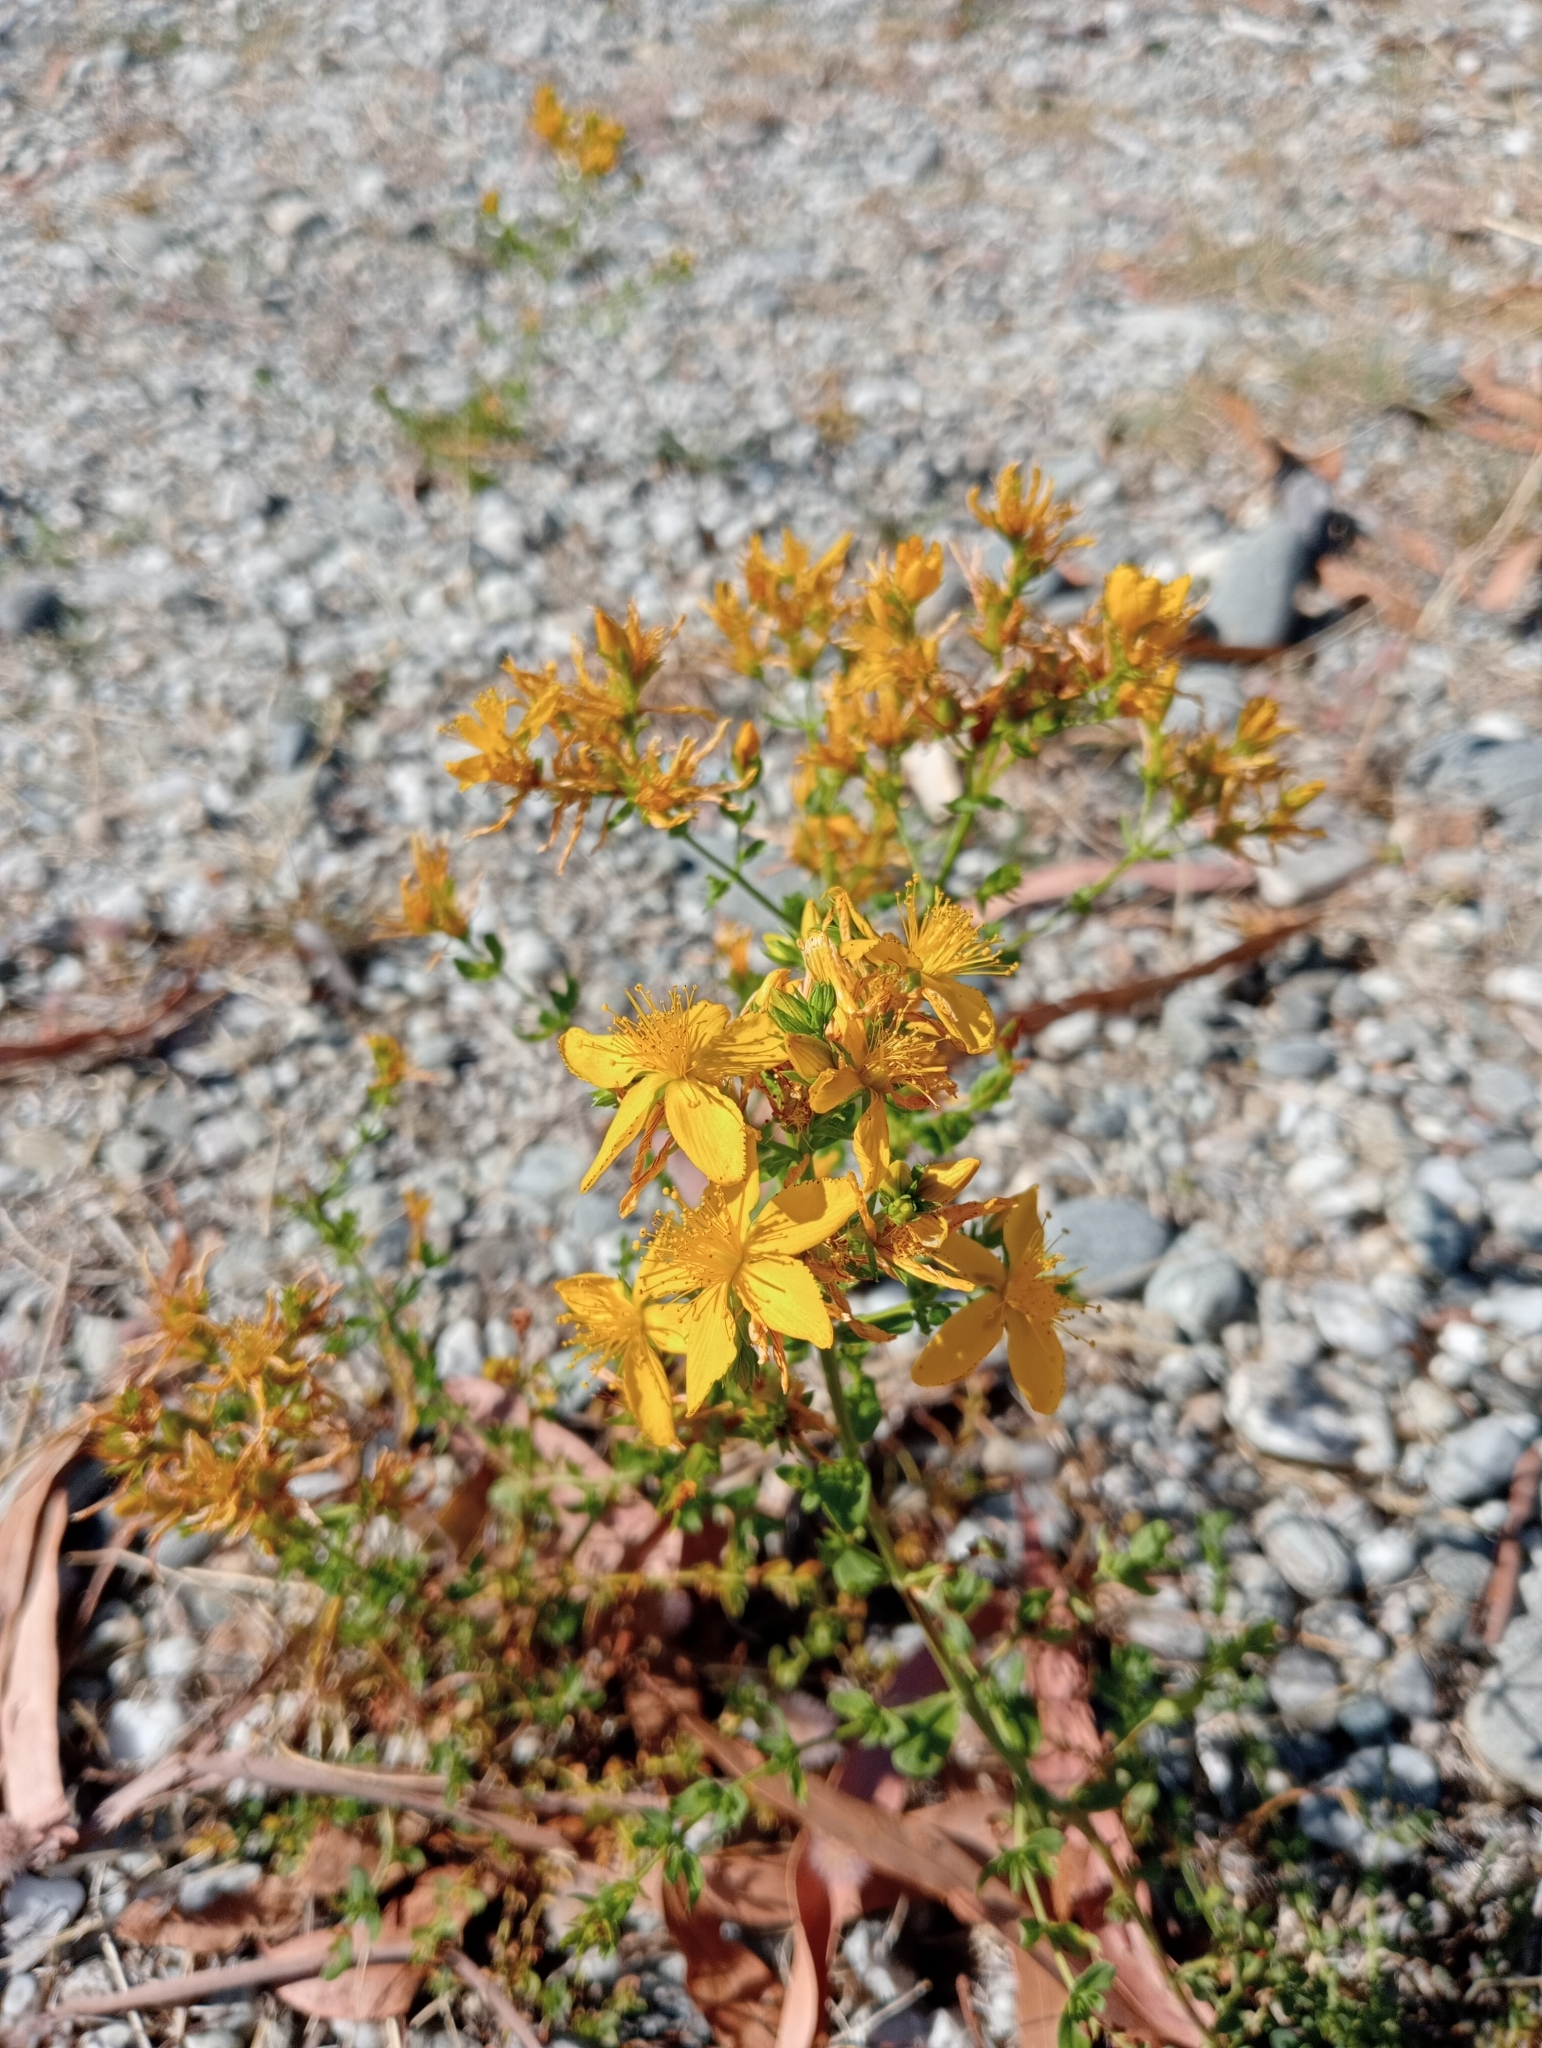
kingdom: Plantae
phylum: Tracheophyta
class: Magnoliopsida
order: Malpighiales
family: Hypericaceae
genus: Hypericum
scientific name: Hypericum perforatum
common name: Common st. johnswort
